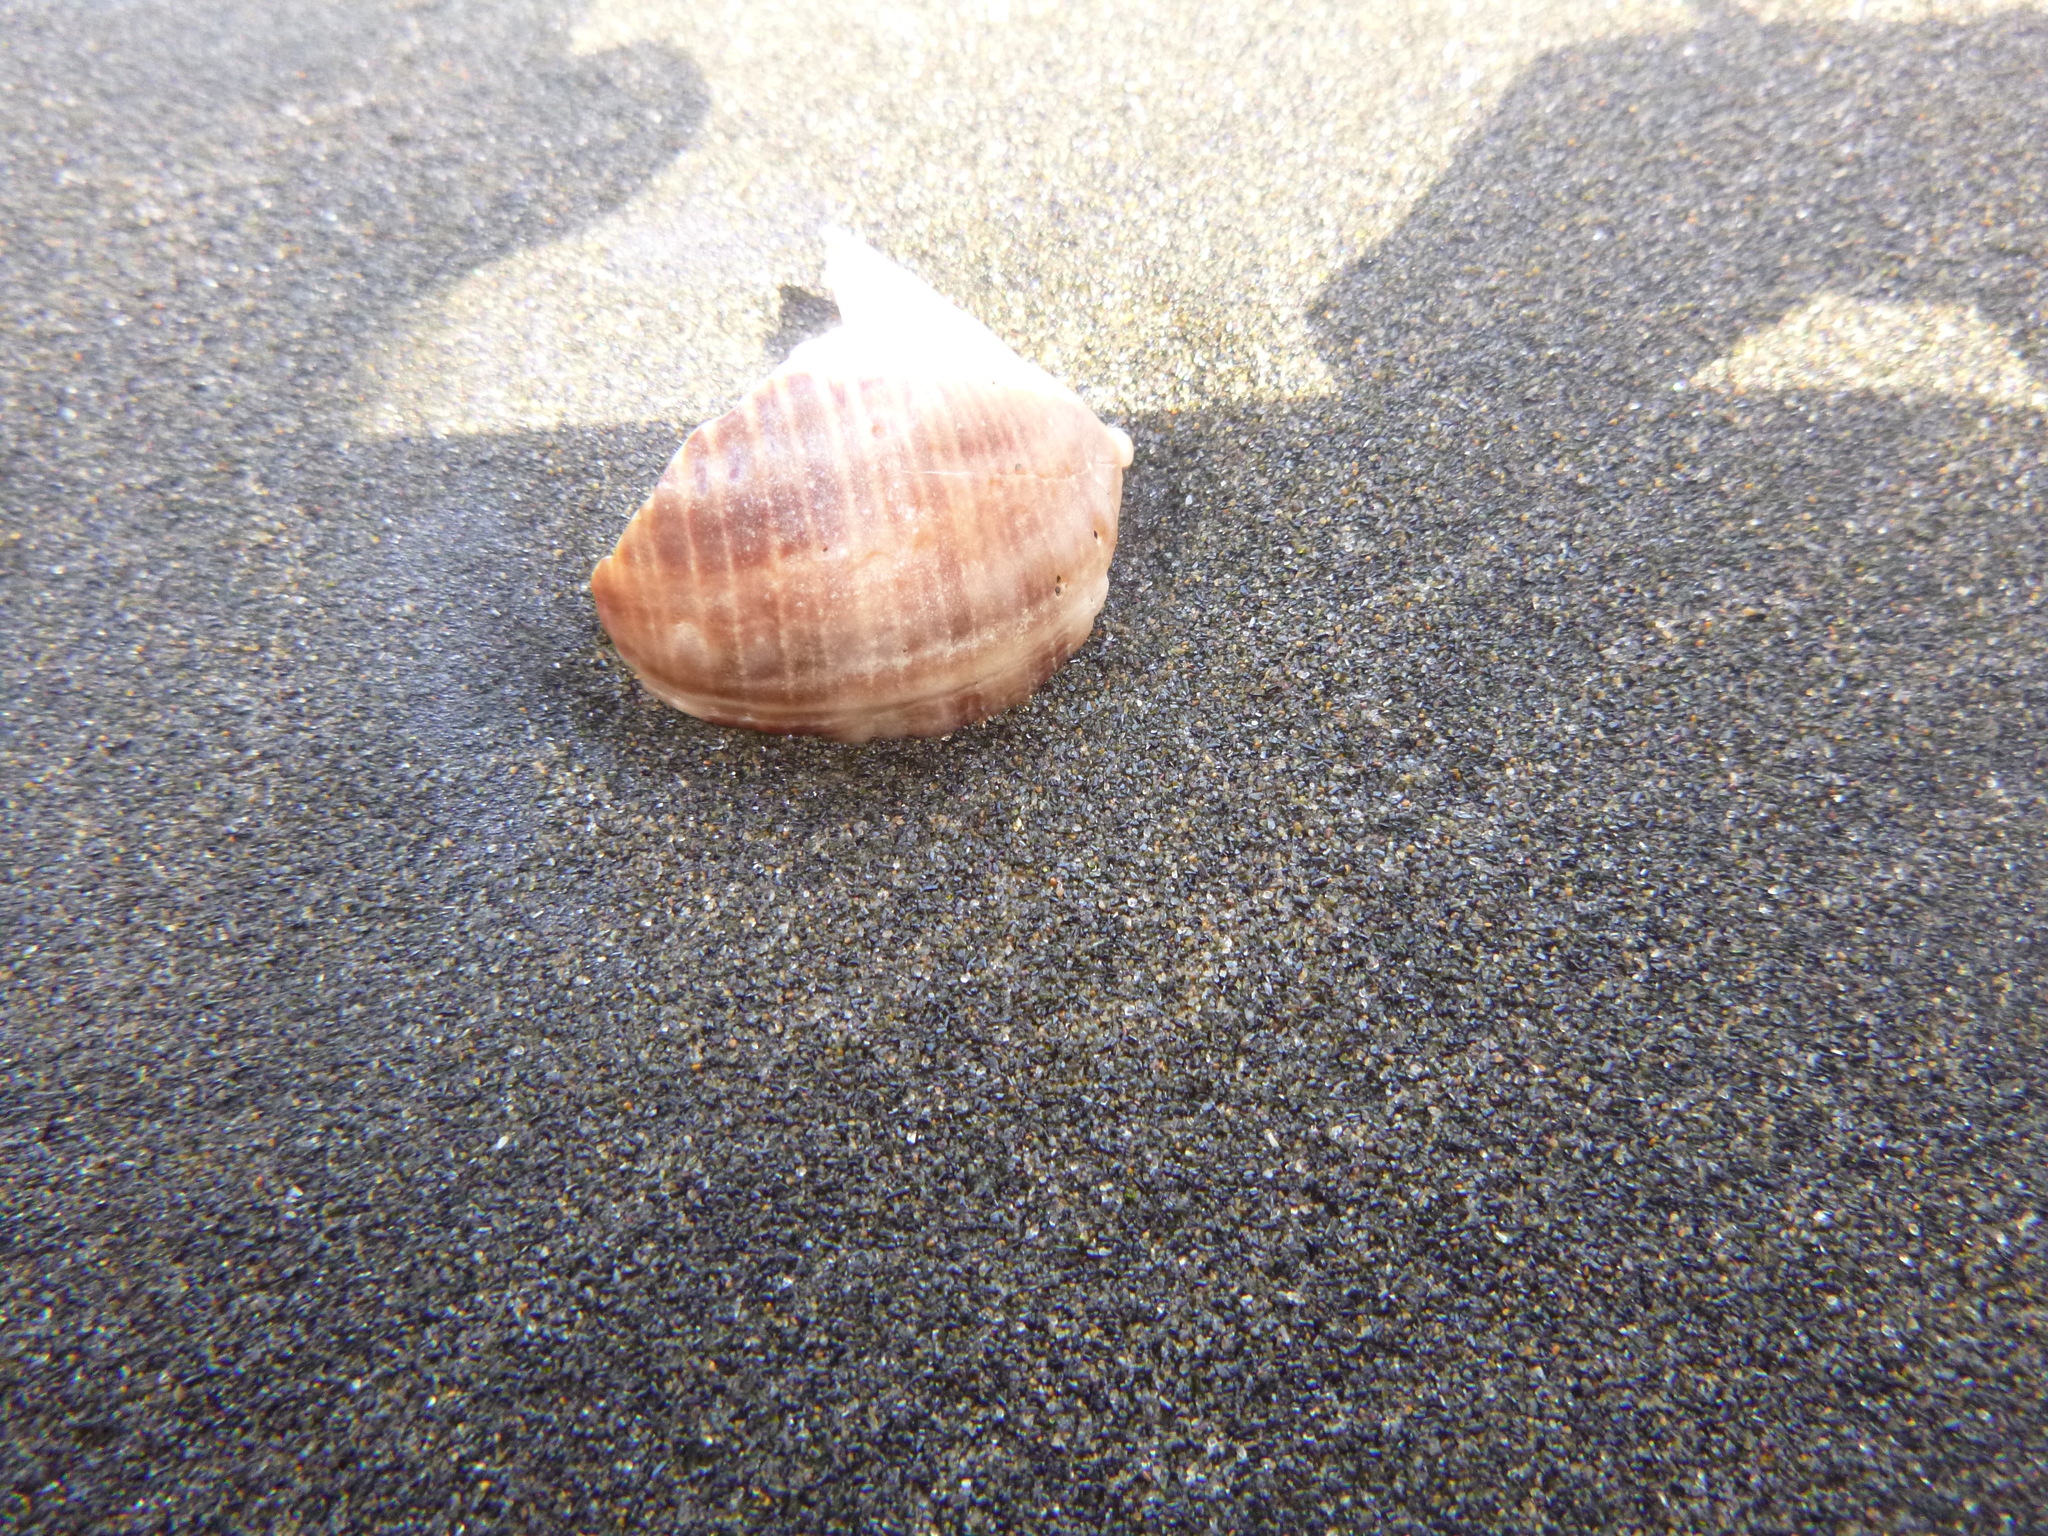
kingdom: Animalia
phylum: Mollusca
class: Gastropoda
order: Neogastropoda
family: Muricidae
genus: Dicathais
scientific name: Dicathais orbita
